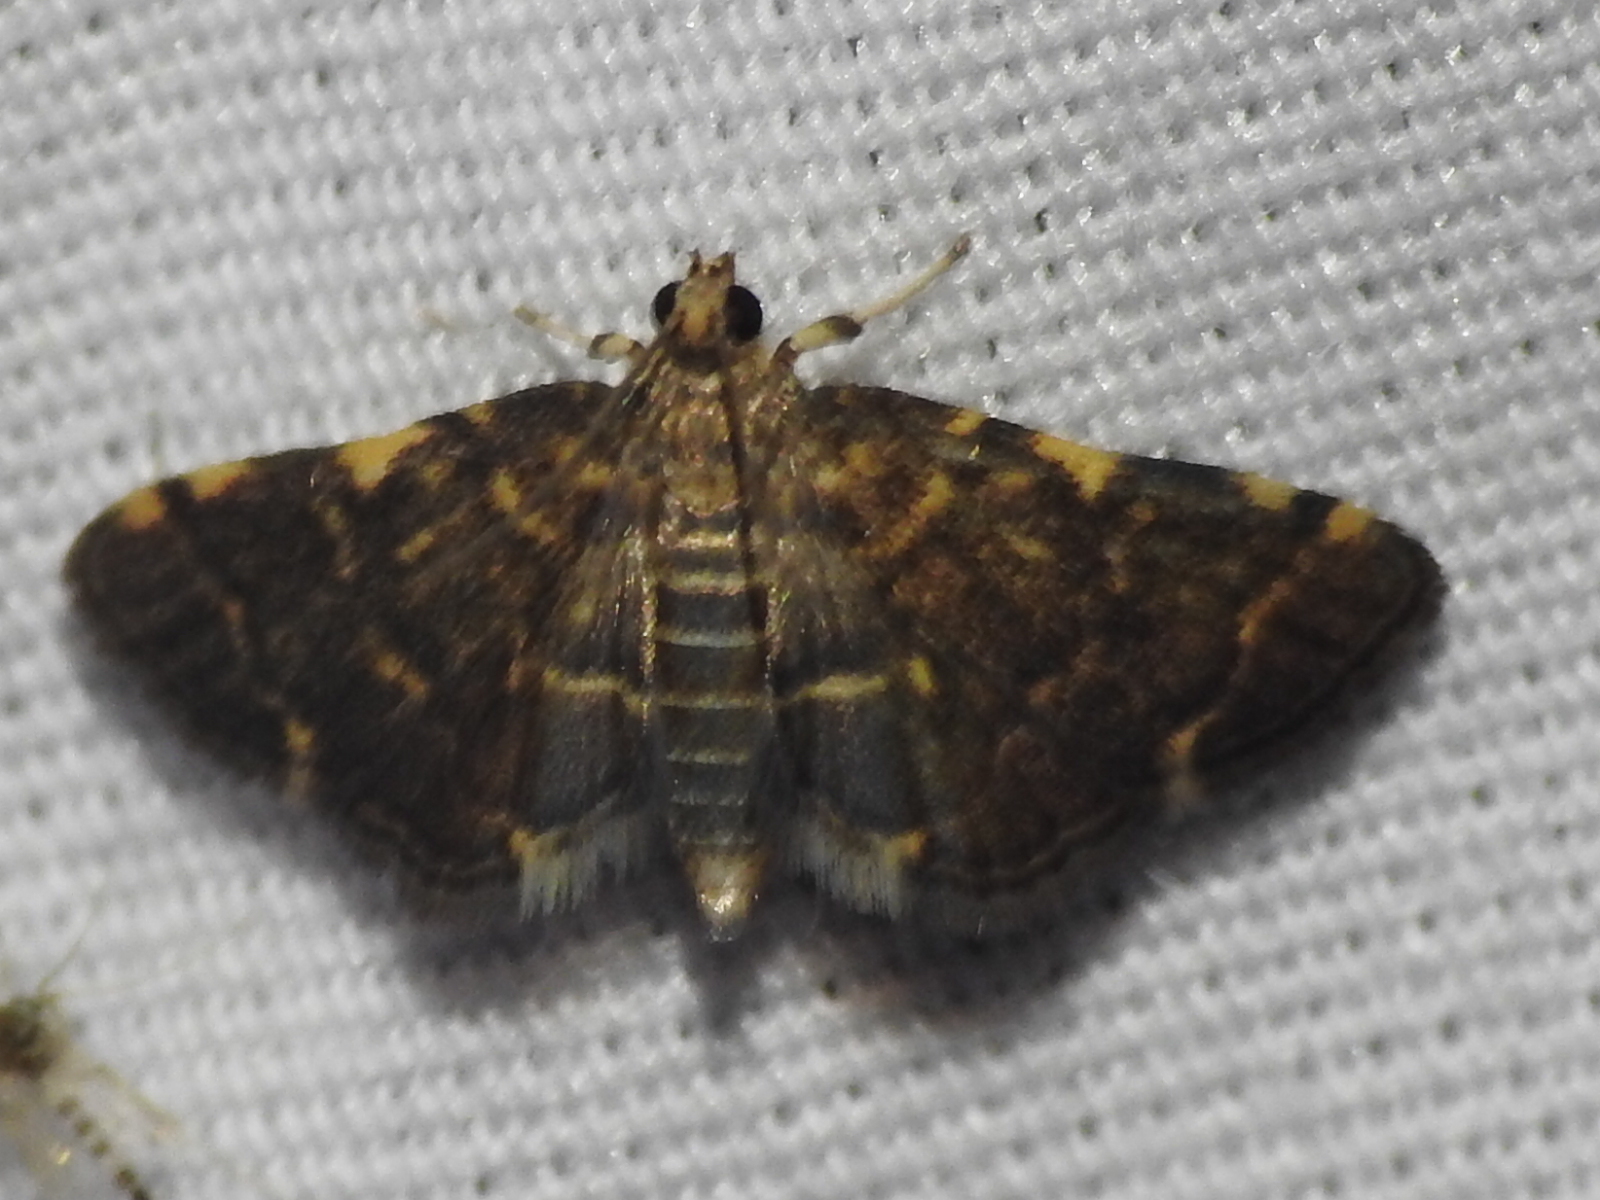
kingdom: Animalia
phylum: Arthropoda
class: Insecta
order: Lepidoptera
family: Crambidae
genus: Anageshna
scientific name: Anageshna primordialis
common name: Yellow-spotted webworm moth
